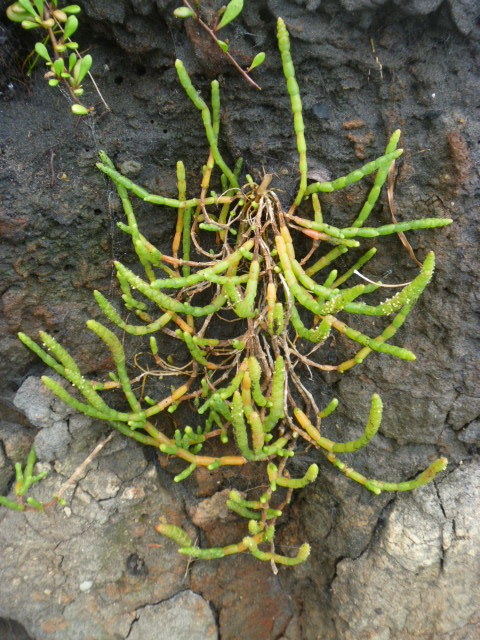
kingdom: Plantae
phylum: Tracheophyta
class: Magnoliopsida
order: Caryophyllales
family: Amaranthaceae
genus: Salicornia
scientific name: Salicornia quinqueflora
